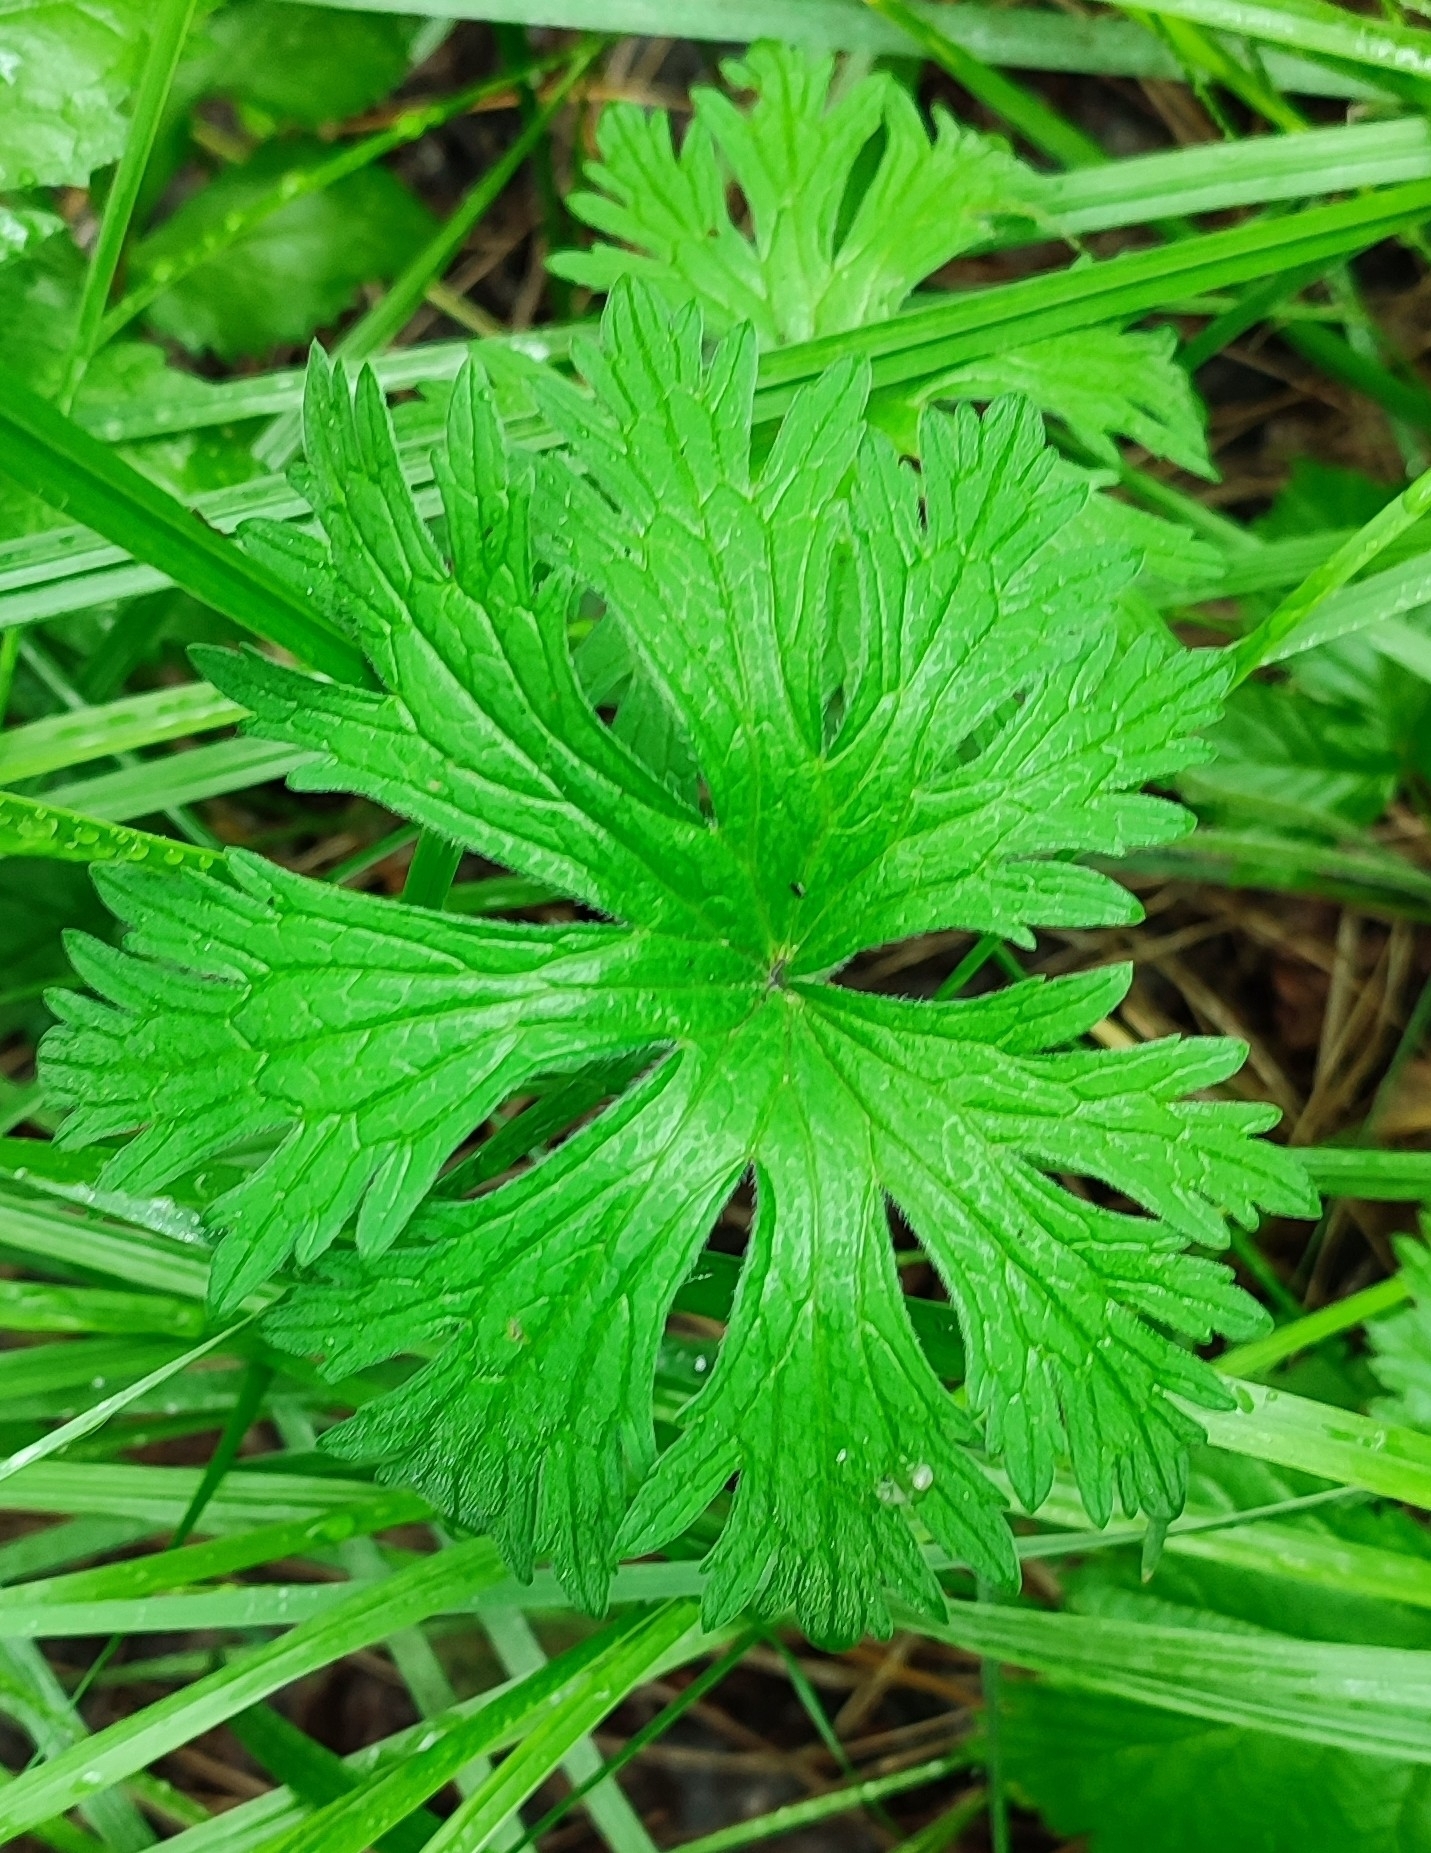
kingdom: Plantae
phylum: Tracheophyta
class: Magnoliopsida
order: Geraniales
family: Geraniaceae
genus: Geranium
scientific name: Geranium pratense
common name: Meadow crane's-bill
